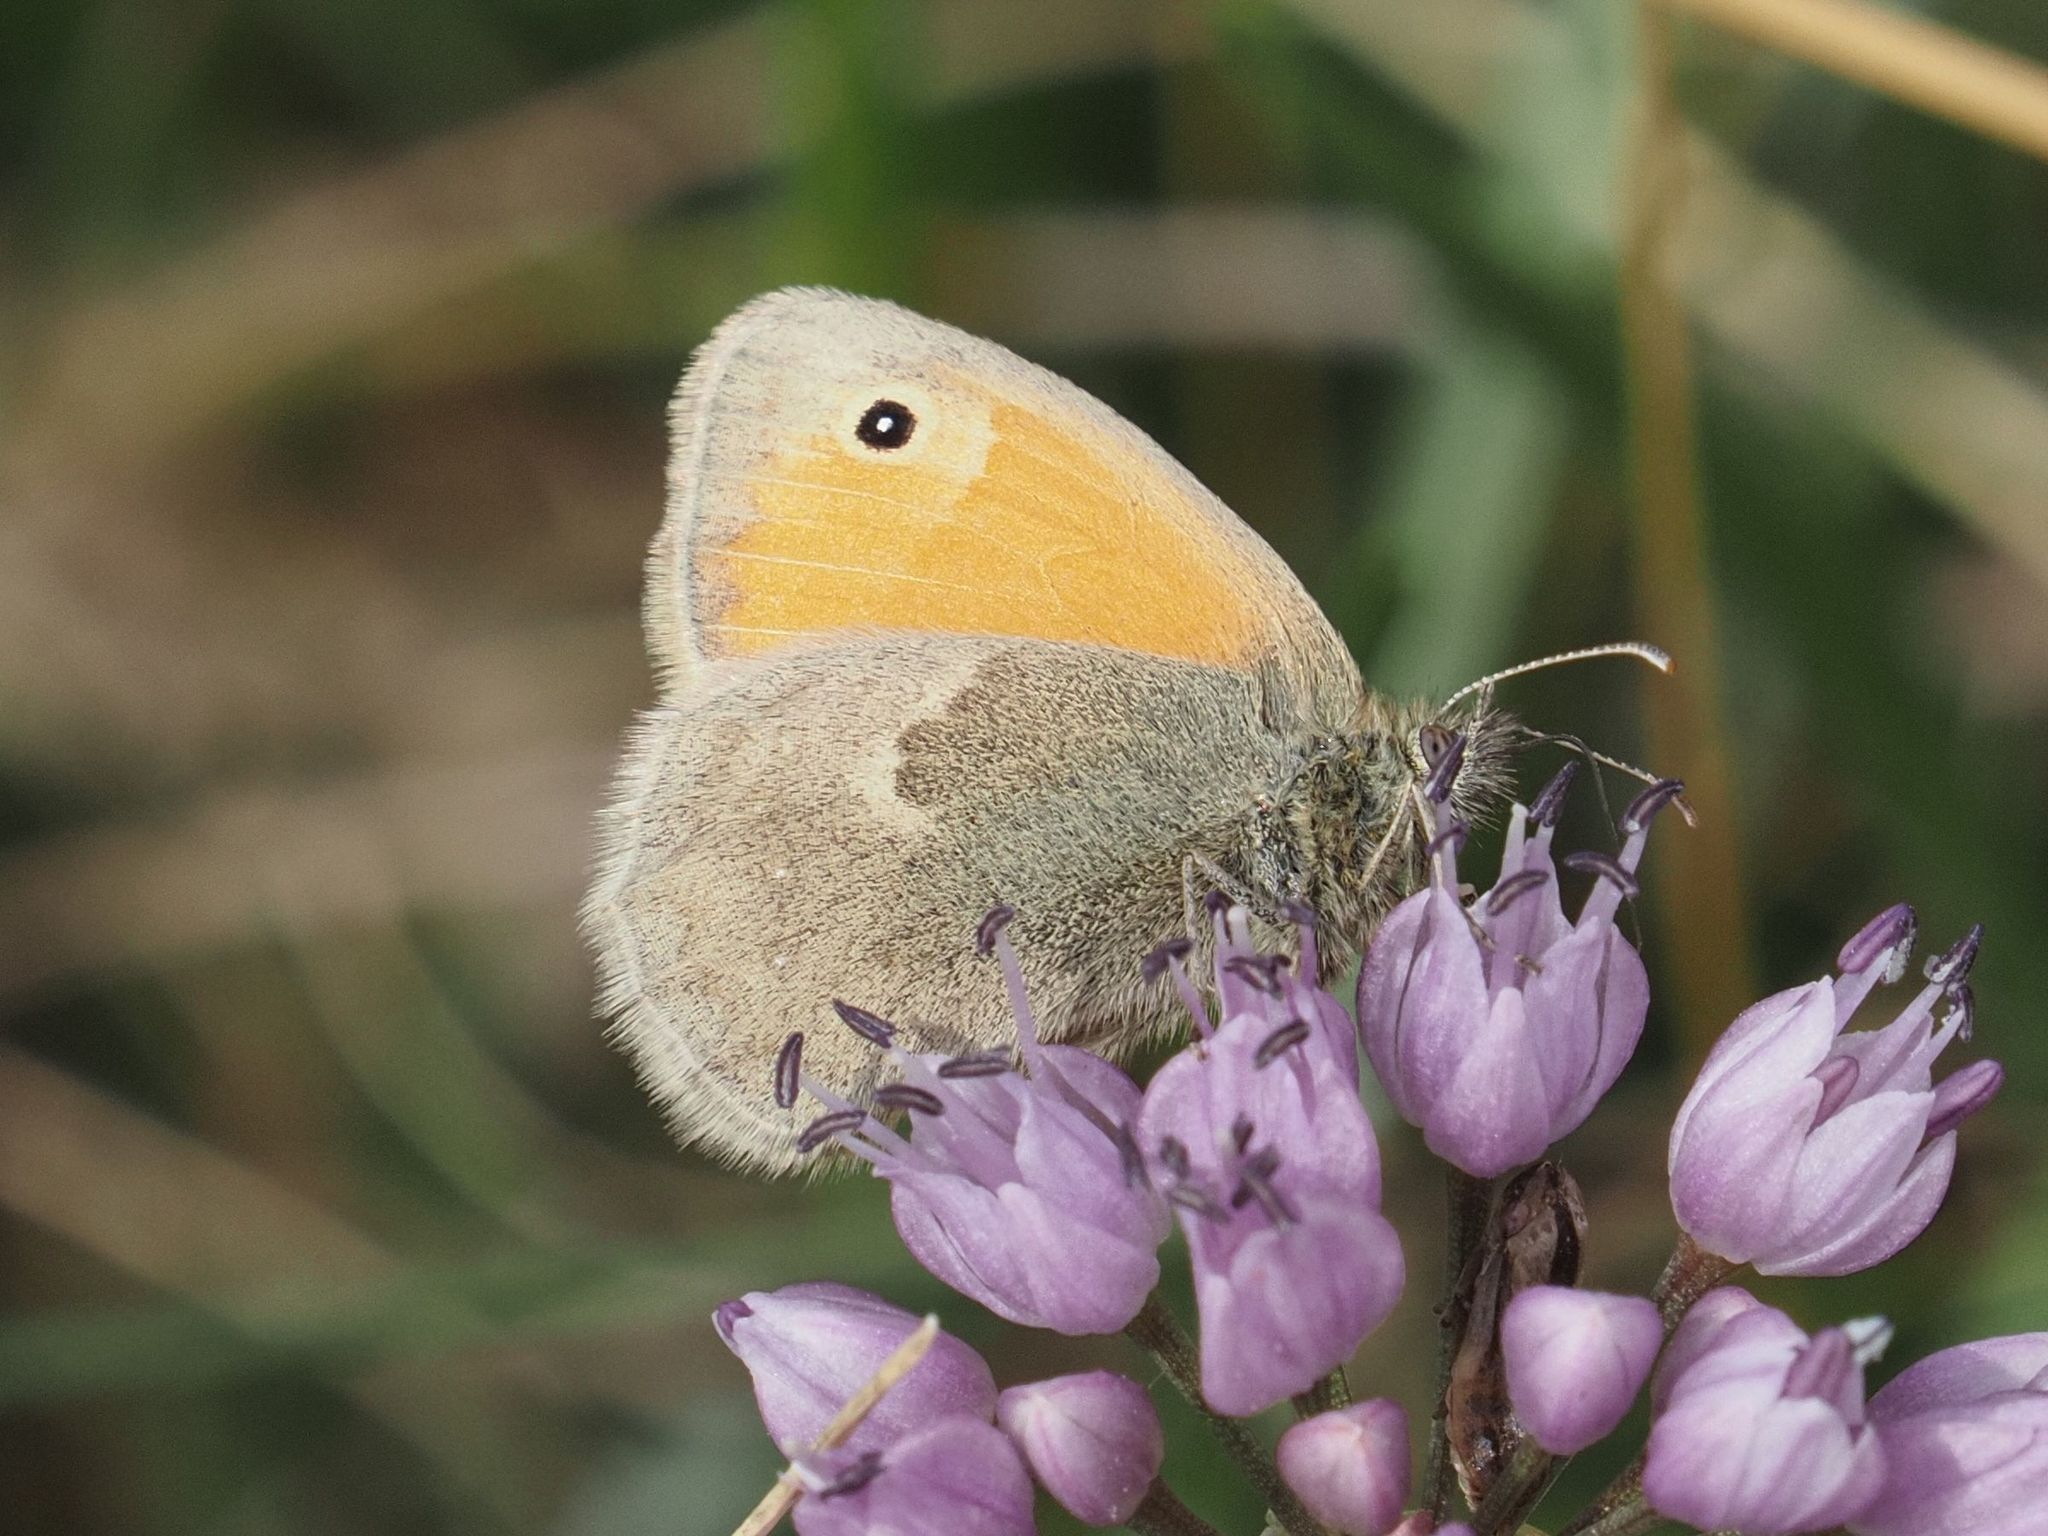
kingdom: Animalia
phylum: Arthropoda
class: Insecta
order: Lepidoptera
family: Nymphalidae
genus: Coenonympha
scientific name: Coenonympha pamphilus
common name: Small heath
